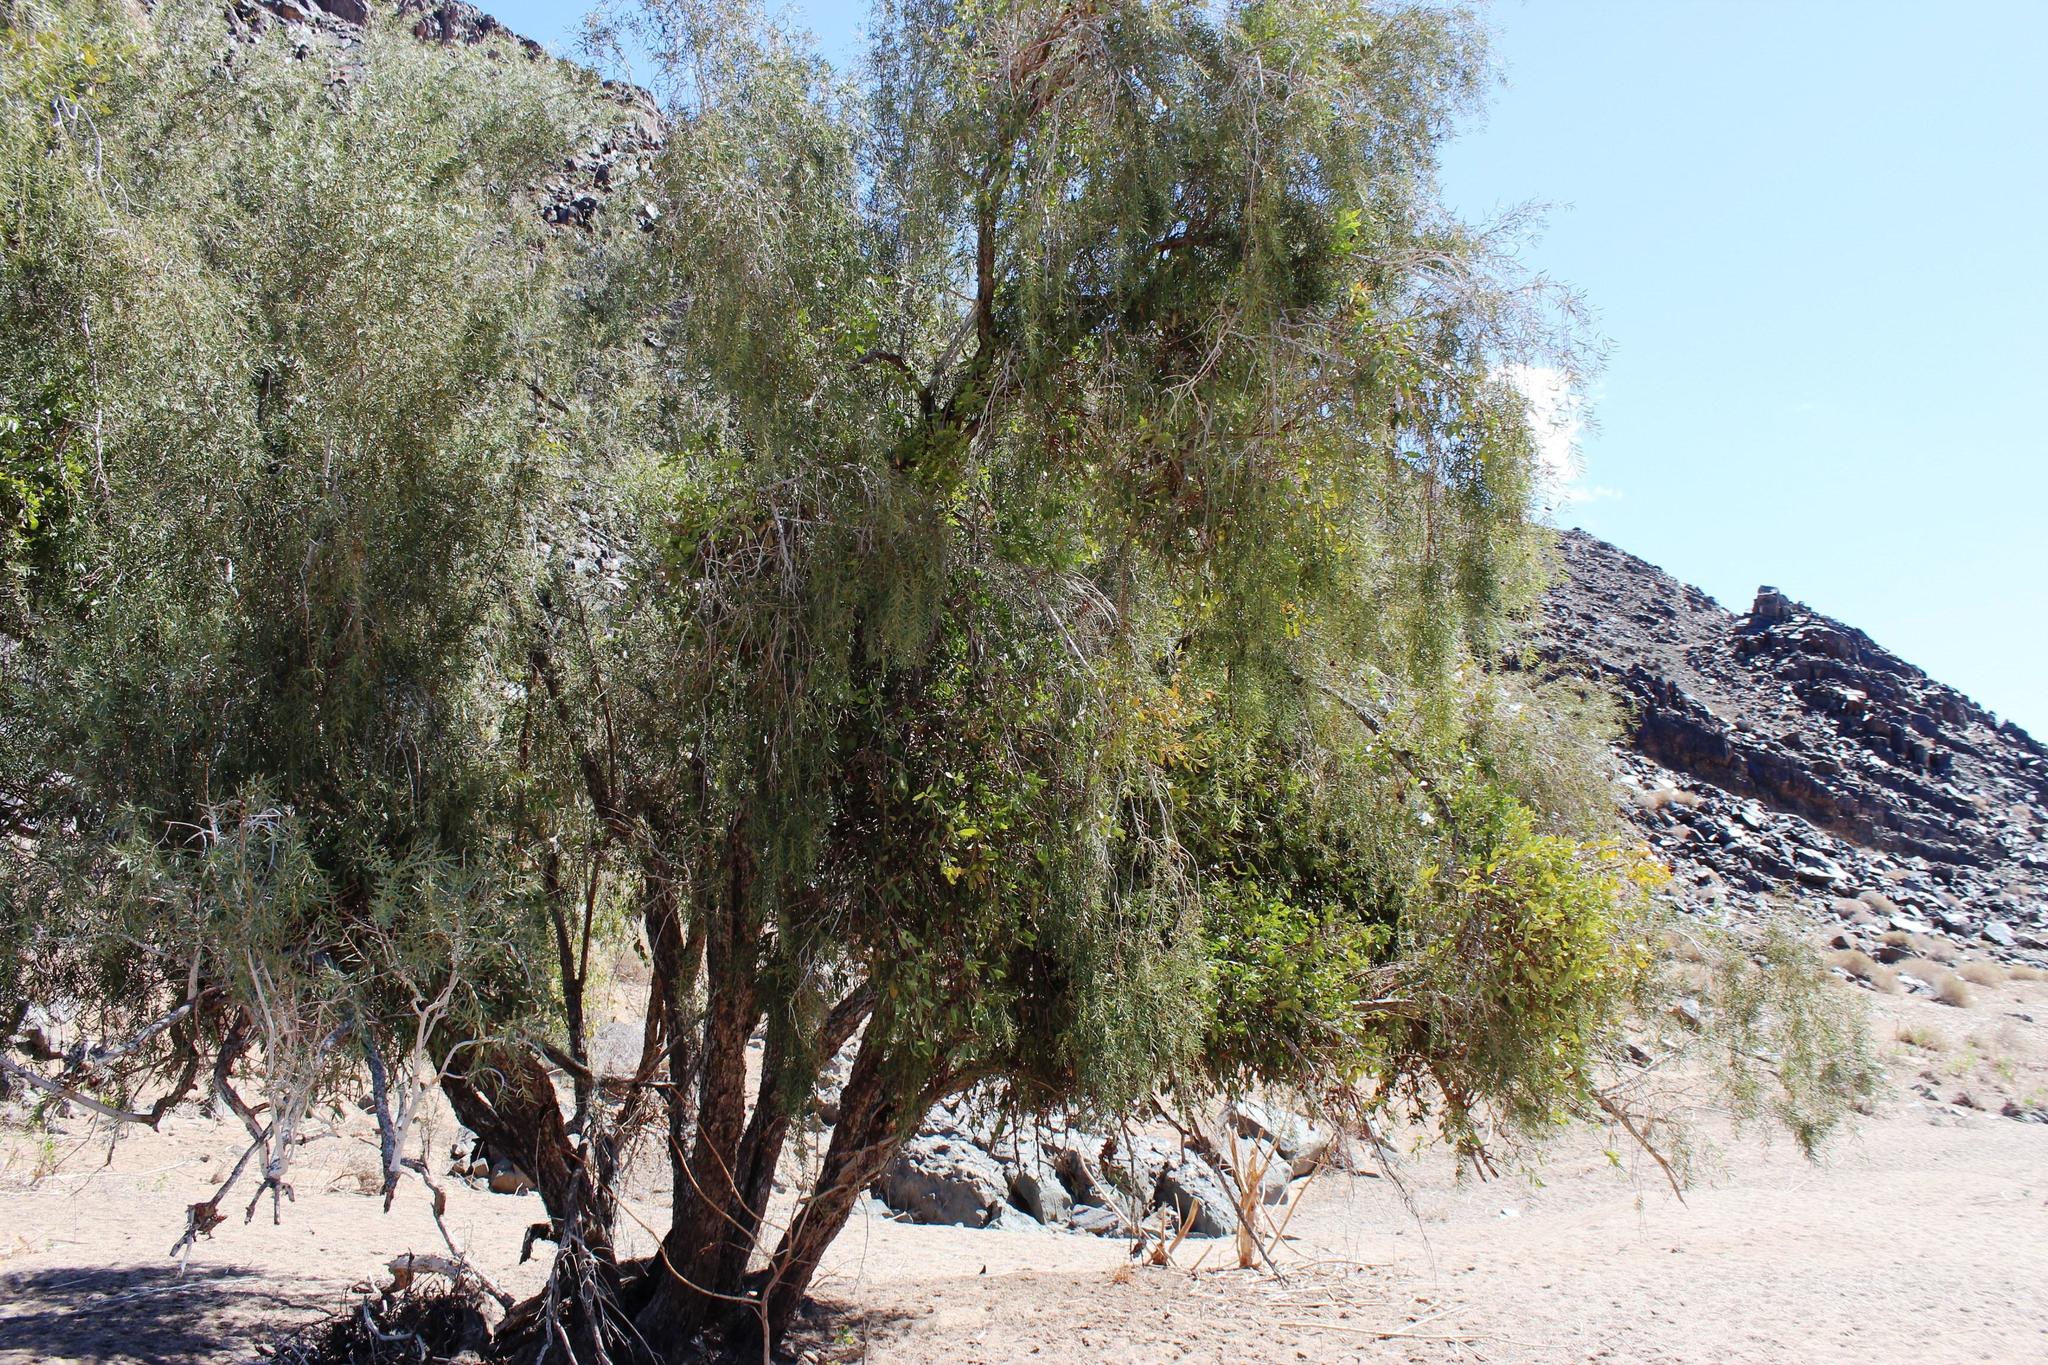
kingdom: Plantae
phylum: Tracheophyta
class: Magnoliopsida
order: Ericales
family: Ebenaceae
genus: Euclea
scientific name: Euclea pseudebenus
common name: Black ebony
